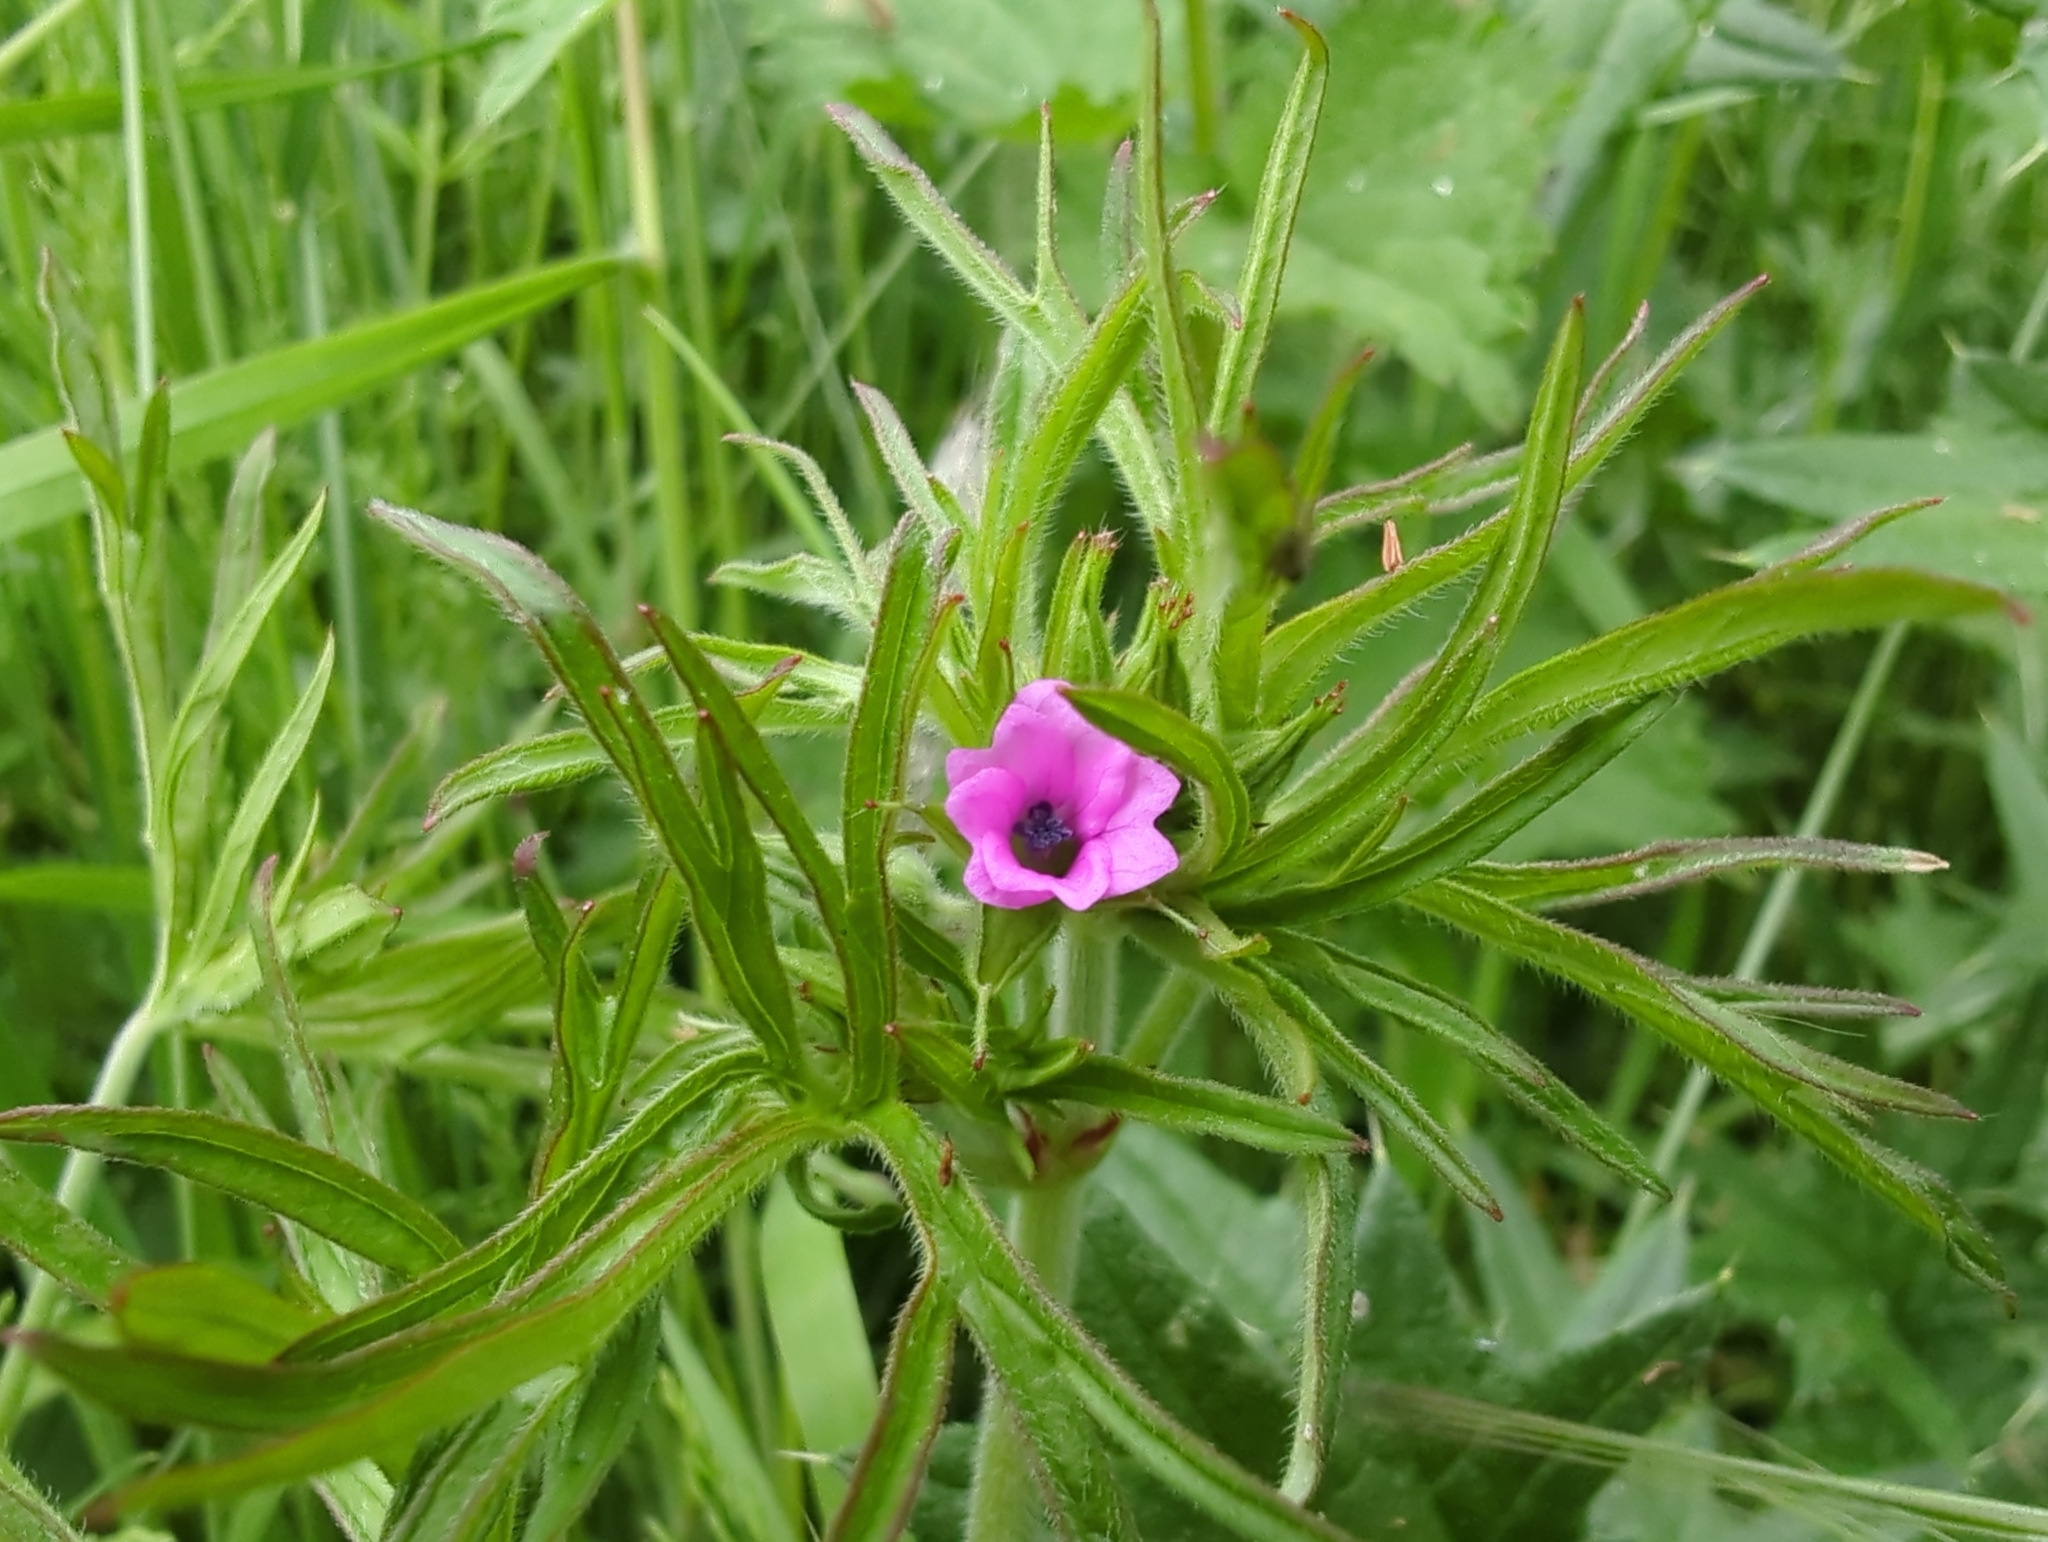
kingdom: Plantae
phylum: Tracheophyta
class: Magnoliopsida
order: Geraniales
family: Geraniaceae
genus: Geranium
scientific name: Geranium dissectum
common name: Cut-leaved crane's-bill
